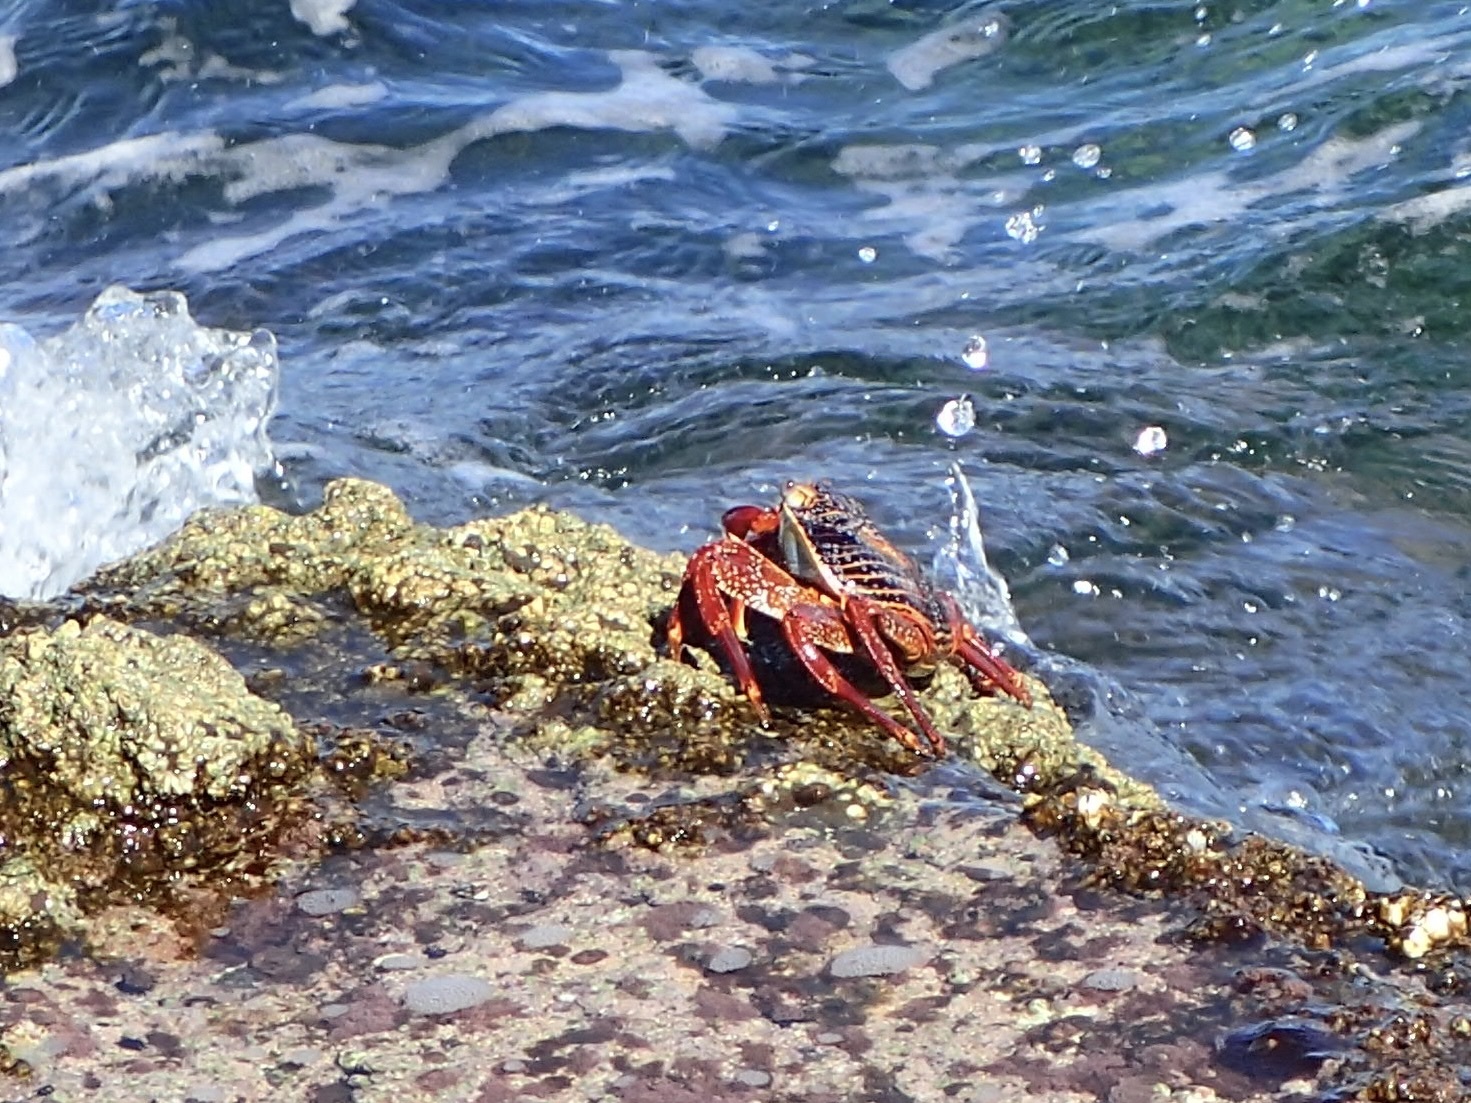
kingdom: Animalia
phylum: Arthropoda
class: Malacostraca
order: Decapoda
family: Grapsidae
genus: Grapsus
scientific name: Grapsus grapsus
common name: Sally lightfoot
